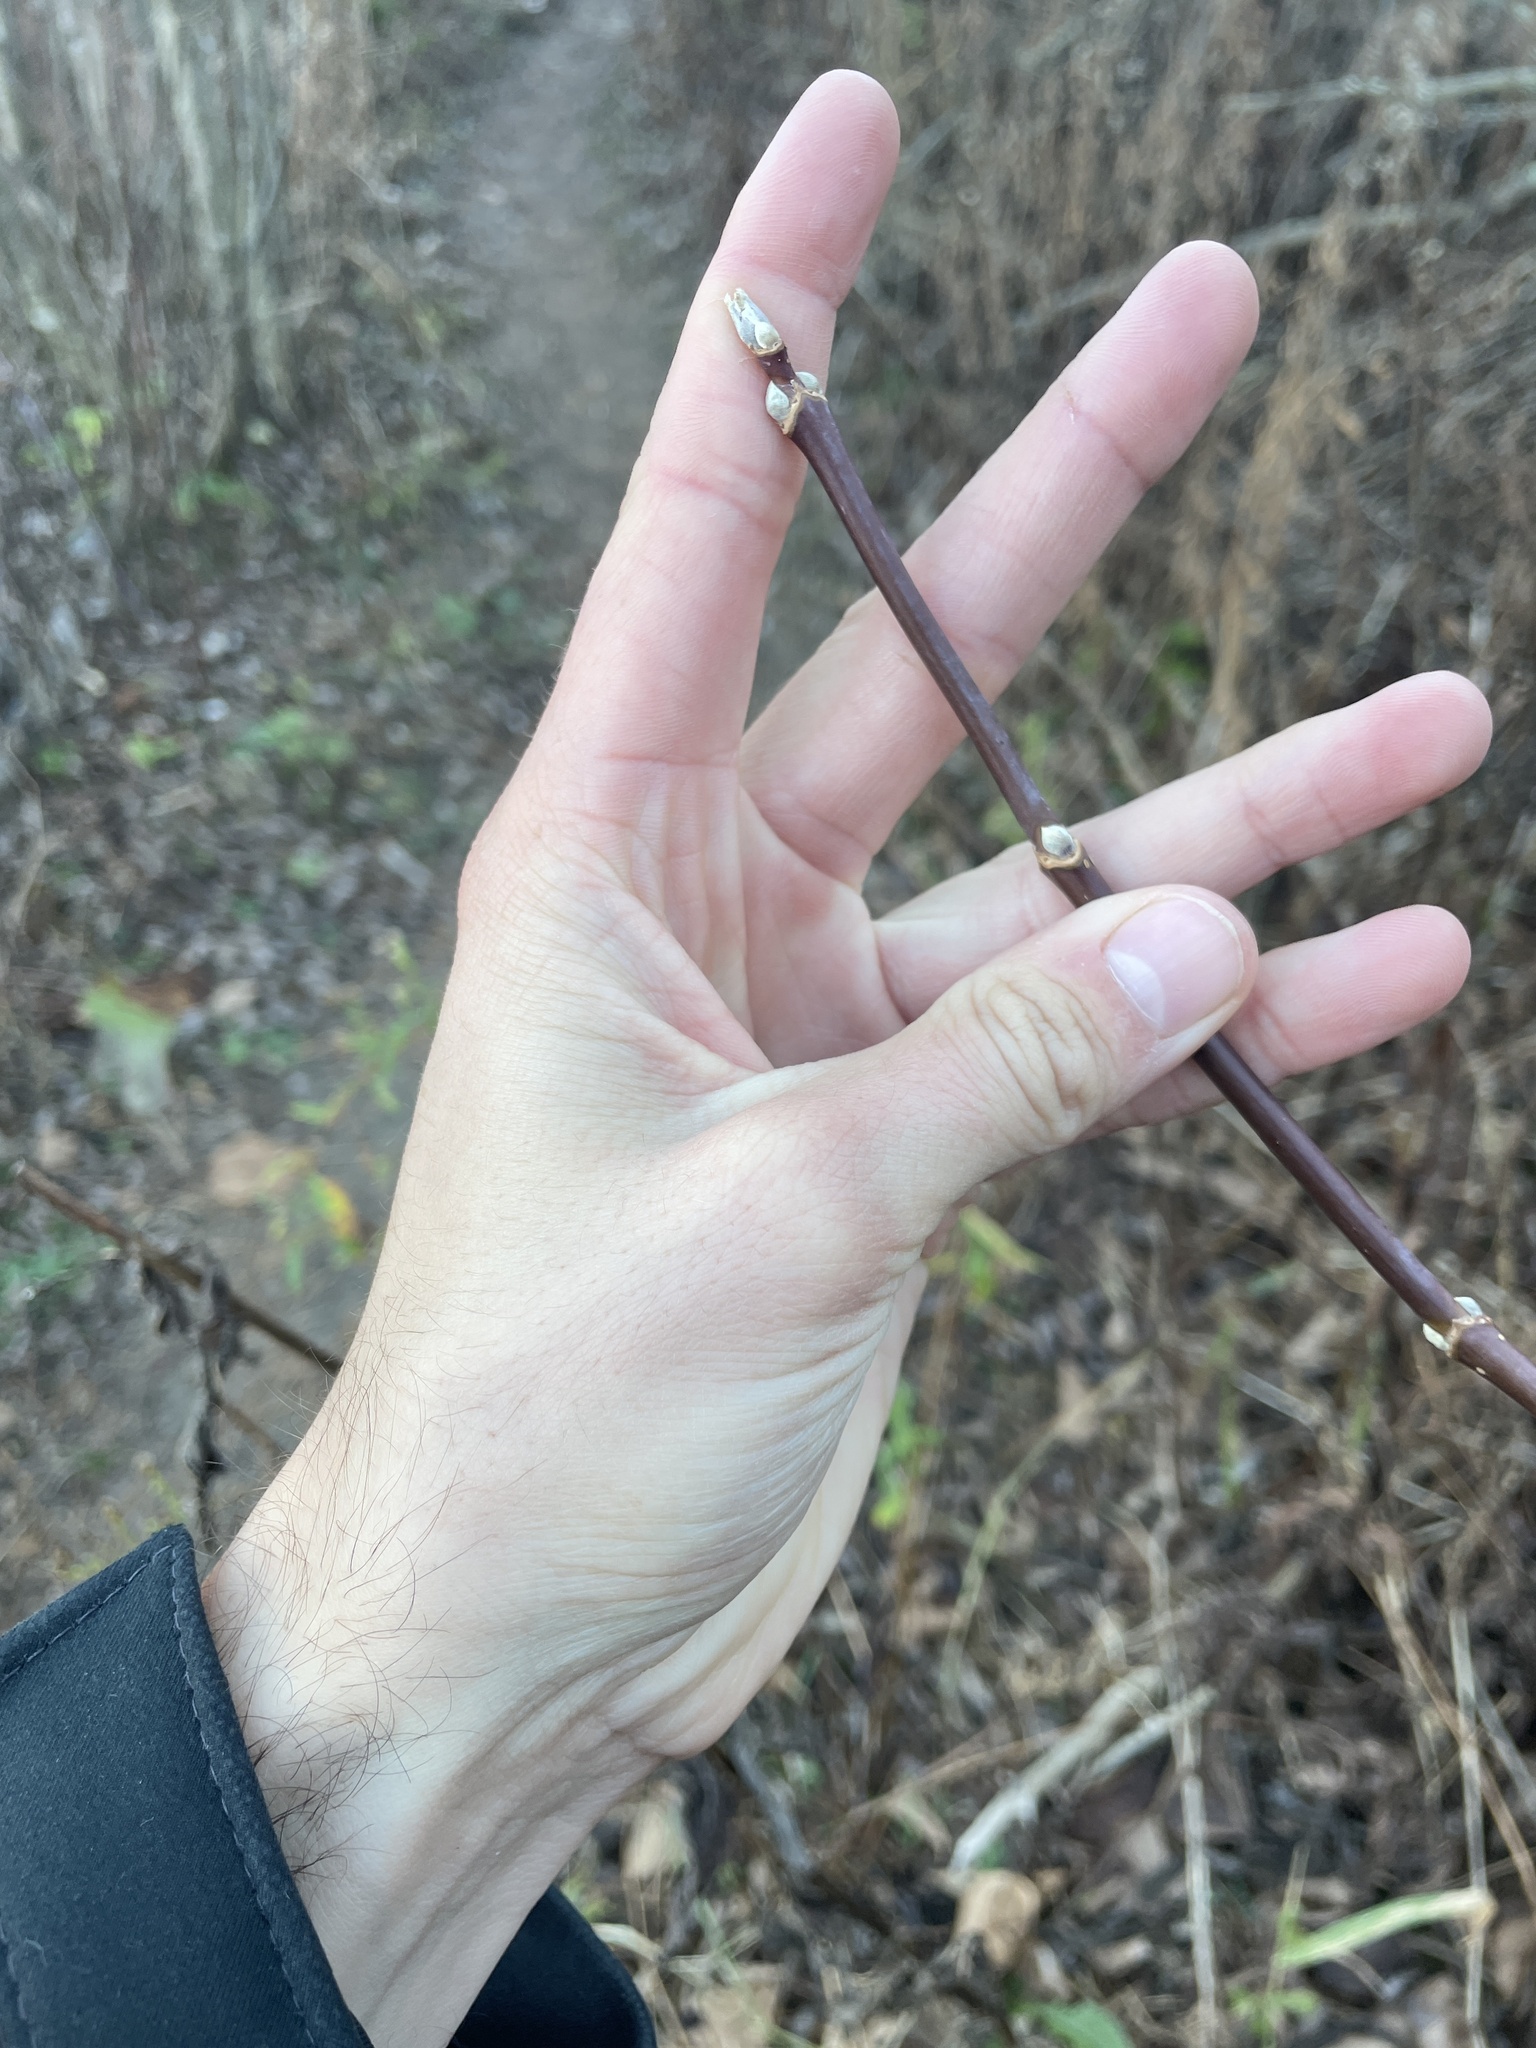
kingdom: Plantae
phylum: Tracheophyta
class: Magnoliopsida
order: Sapindales
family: Sapindaceae
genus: Acer
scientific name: Acer negundo
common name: Ashleaf maple
